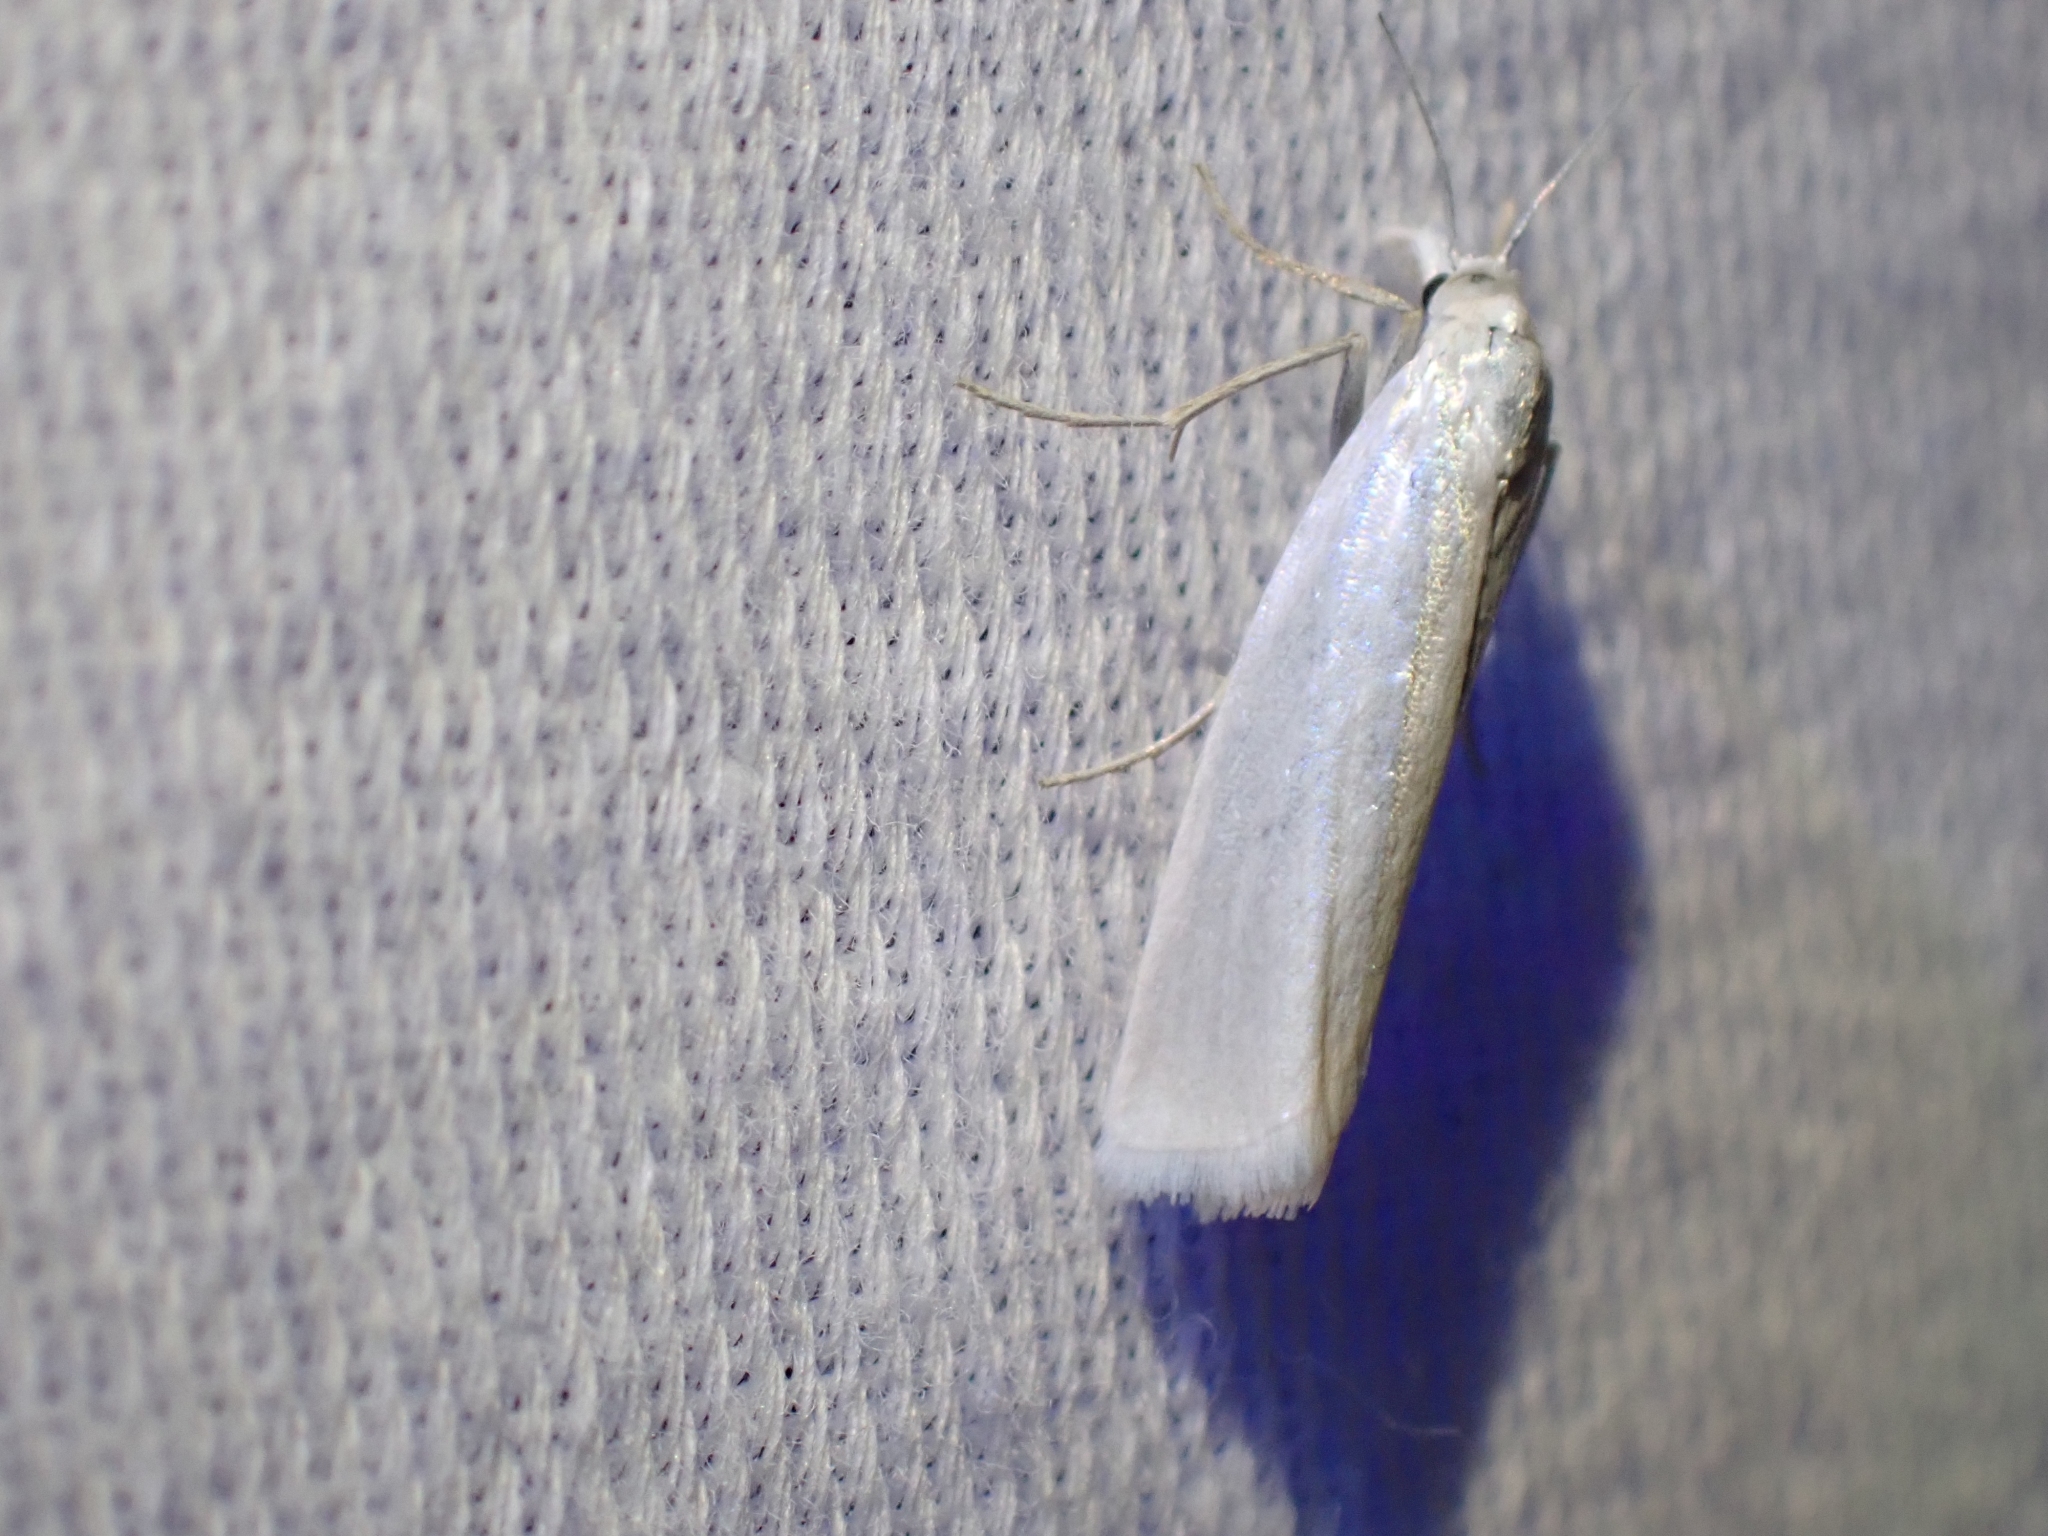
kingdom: Animalia
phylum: Arthropoda
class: Insecta
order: Lepidoptera
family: Crambidae
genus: Crambus
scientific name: Crambus perlellus
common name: Yellow satin veneer
